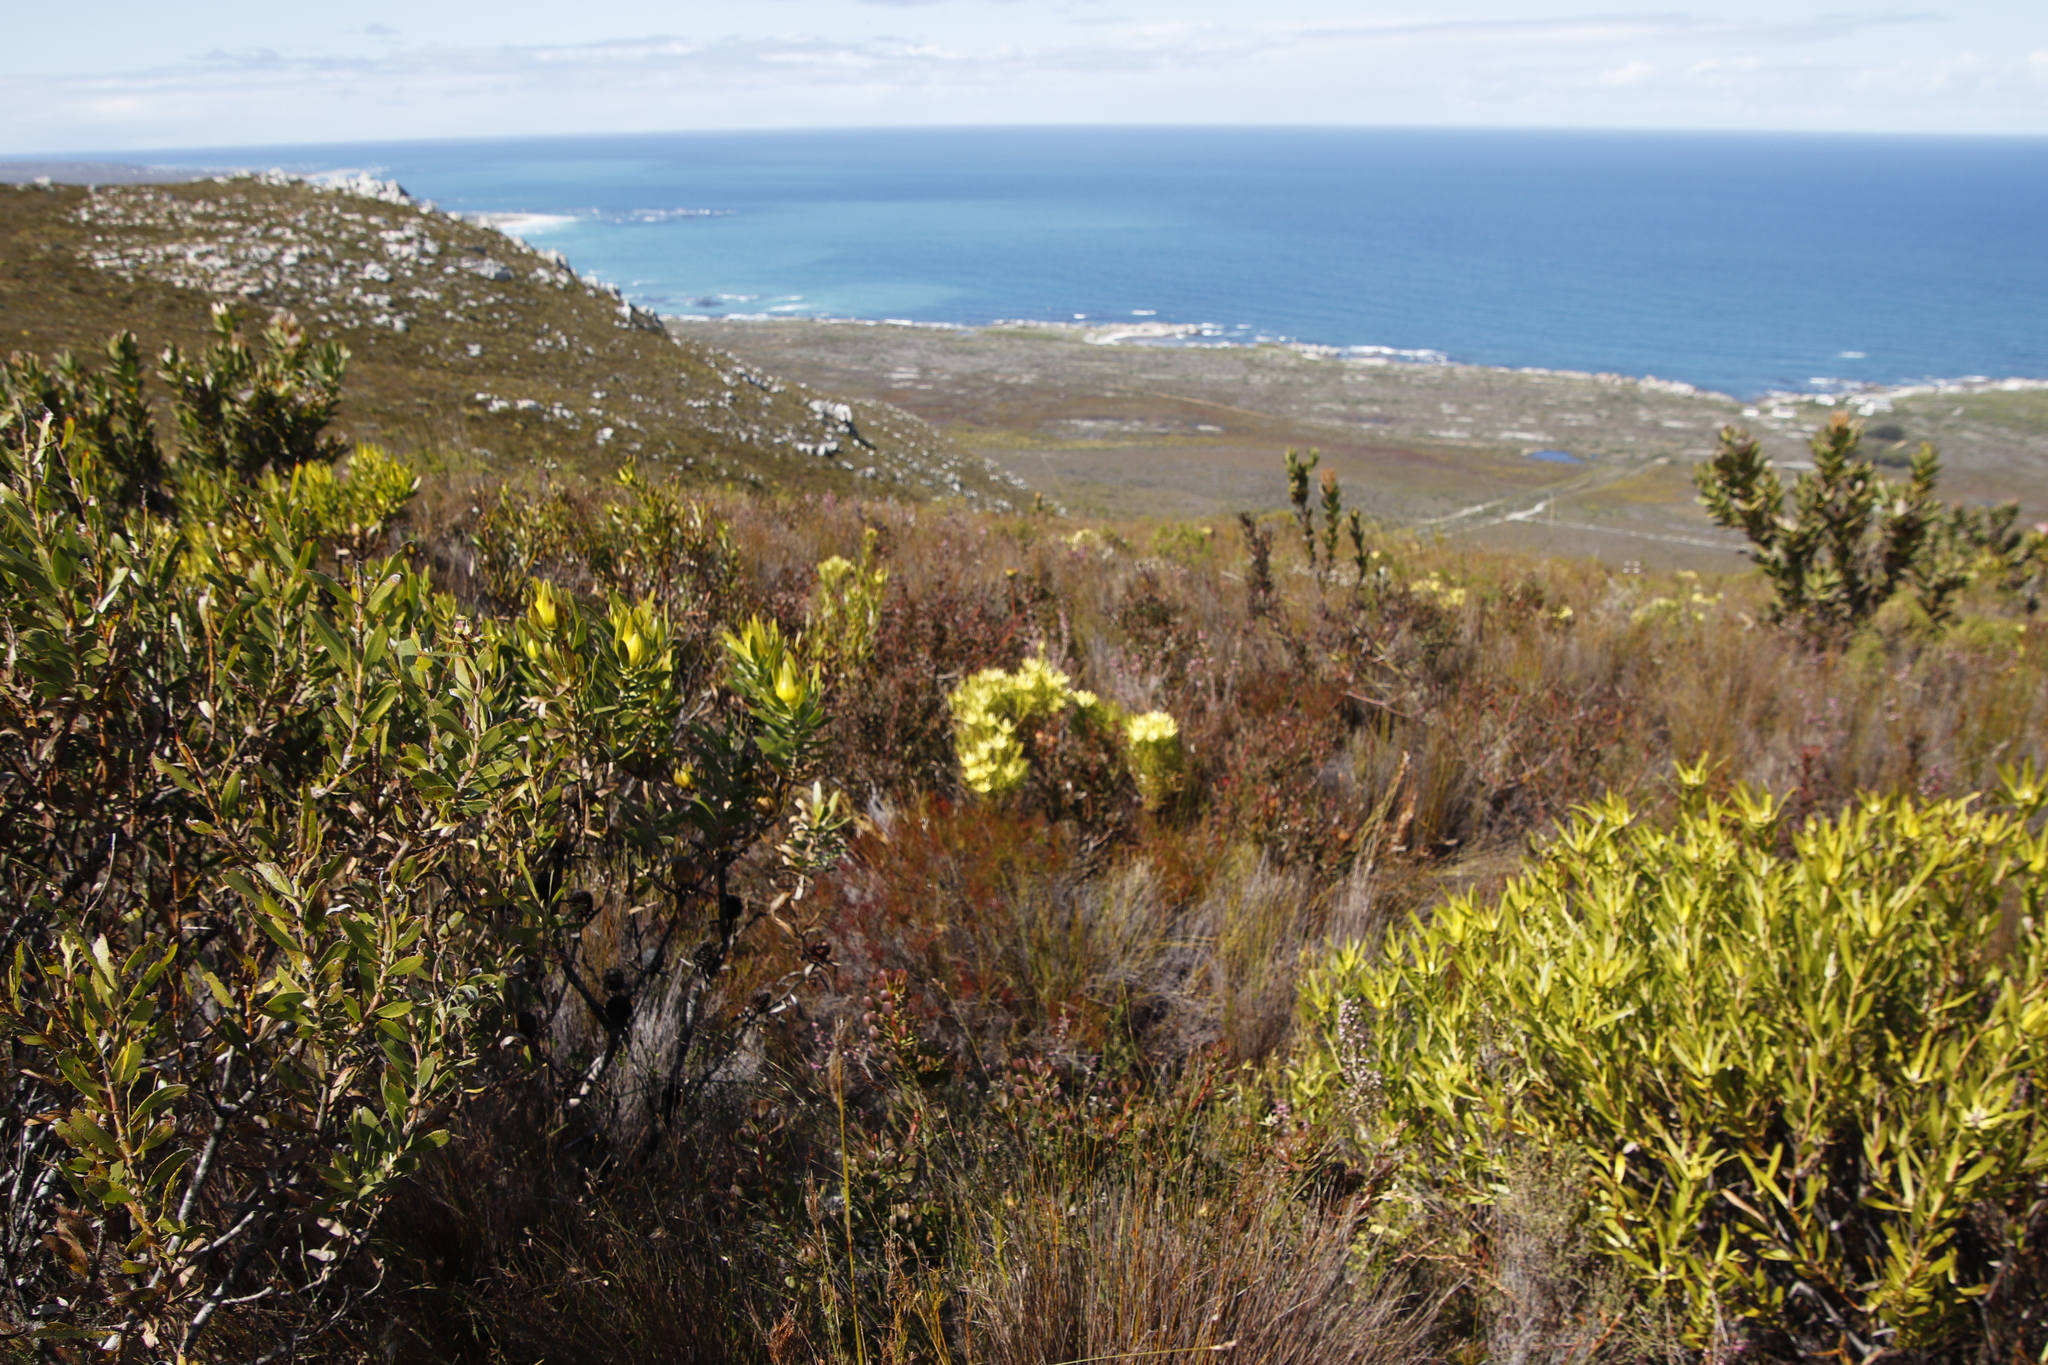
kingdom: Plantae
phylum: Tracheophyta
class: Magnoliopsida
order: Proteales
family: Proteaceae
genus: Leucadendron
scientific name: Leucadendron xanthoconus
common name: Sickle-leaf conebush
